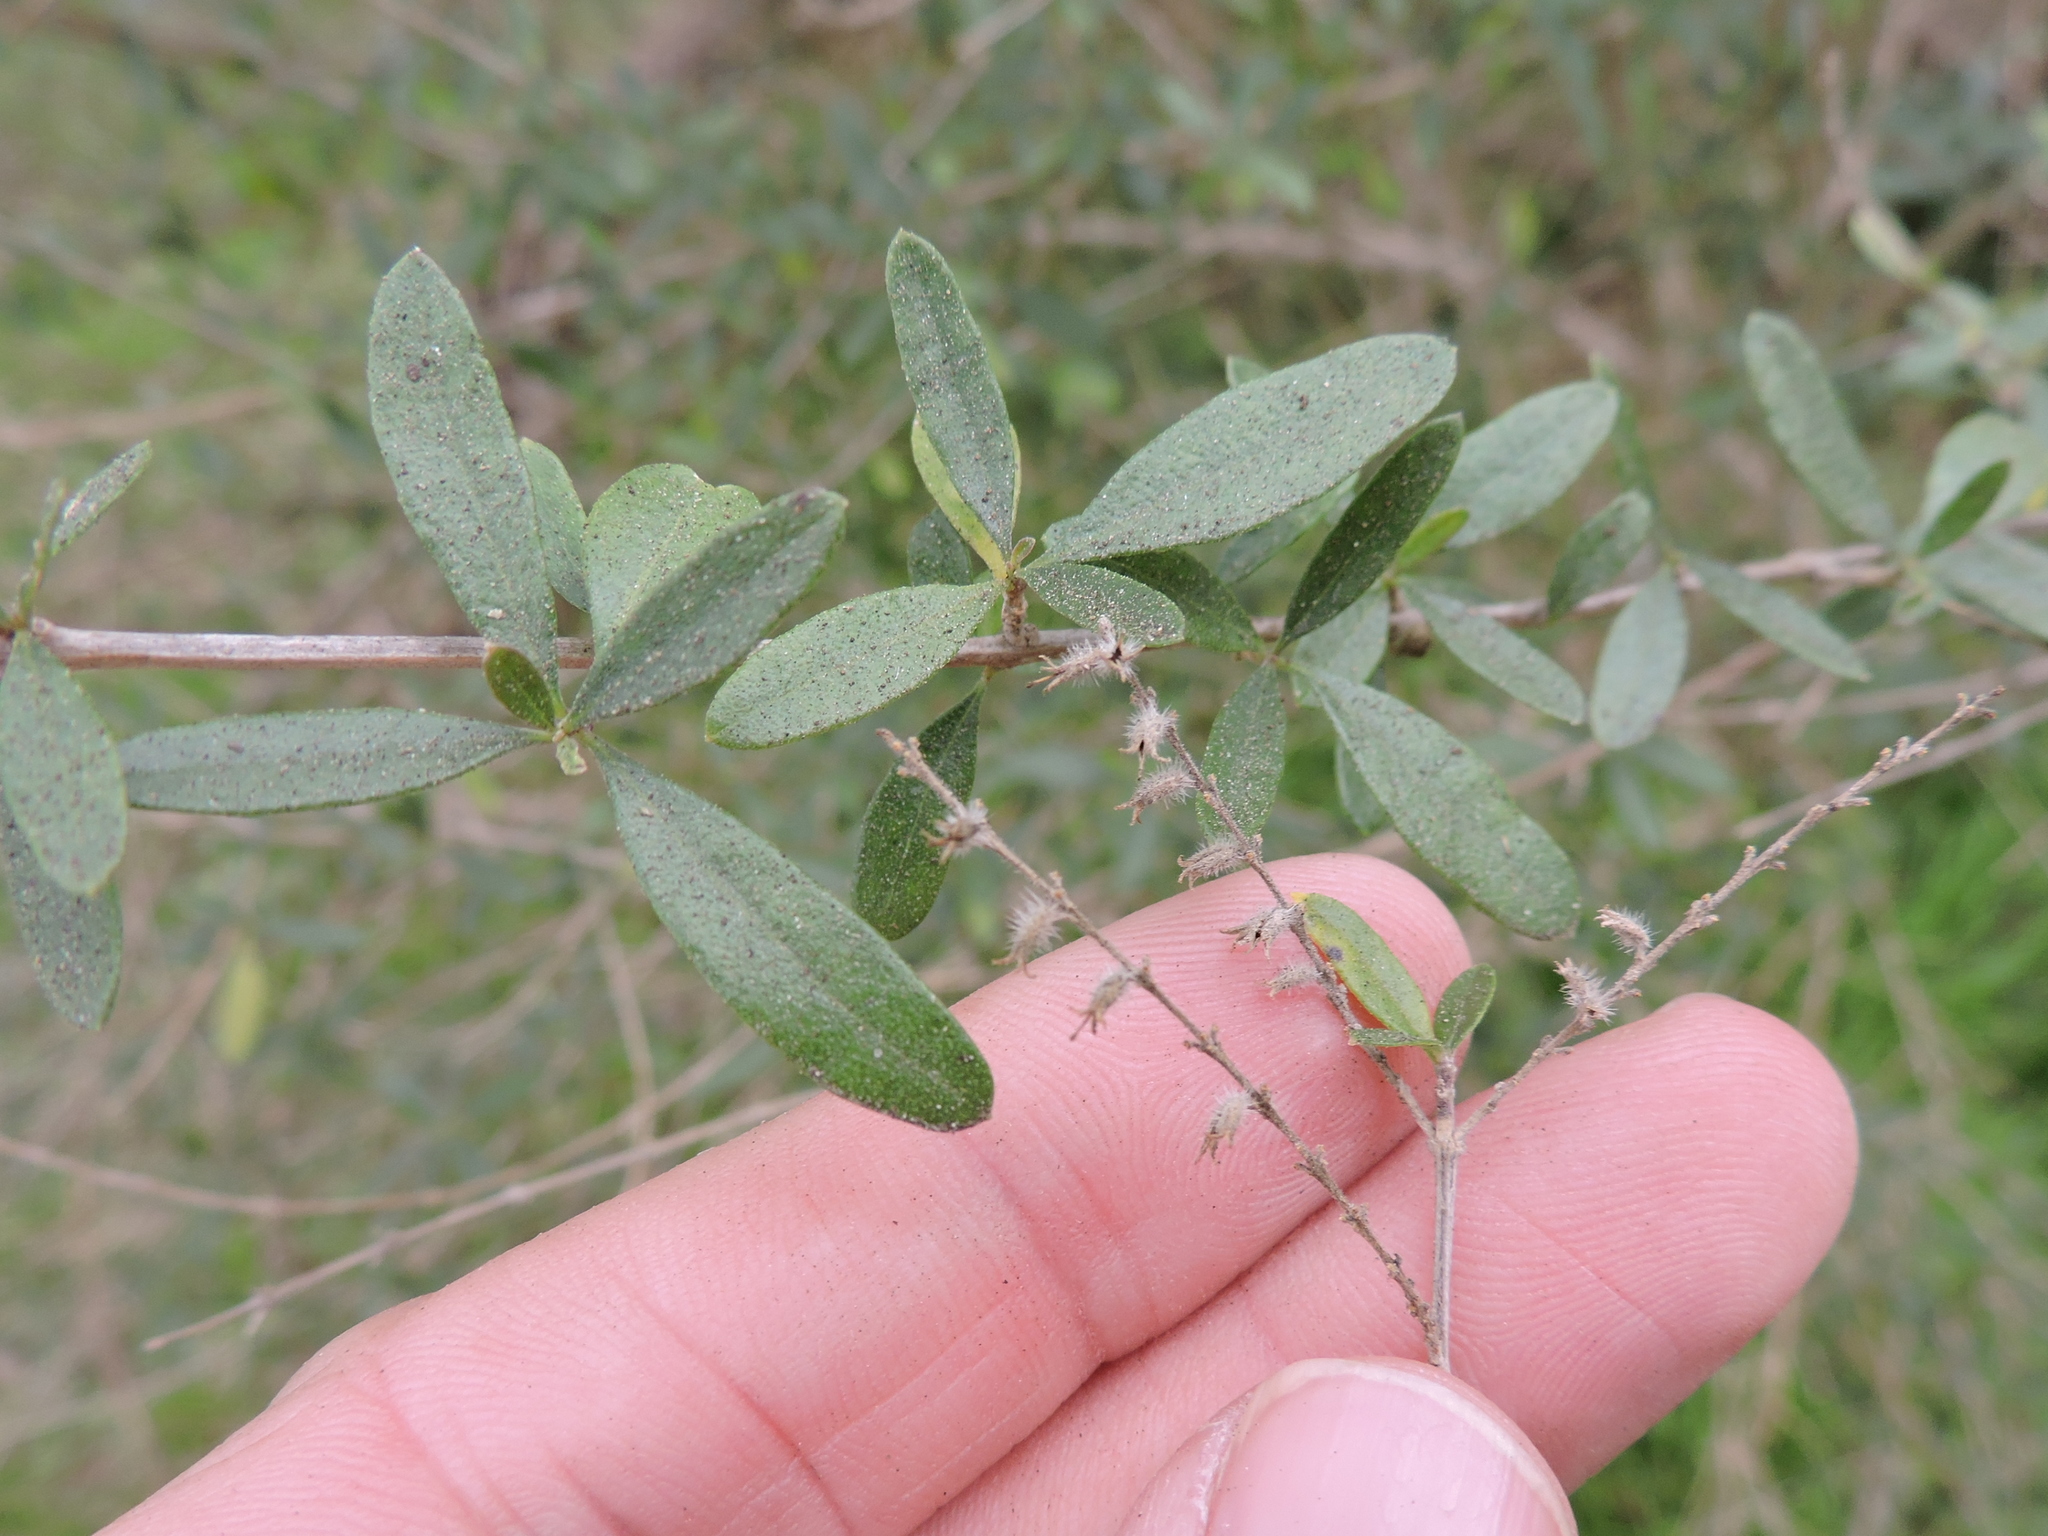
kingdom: Plantae
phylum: Tracheophyta
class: Magnoliopsida
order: Lamiales
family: Verbenaceae
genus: Aloysia
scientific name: Aloysia gratissima
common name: Common bee-brush
